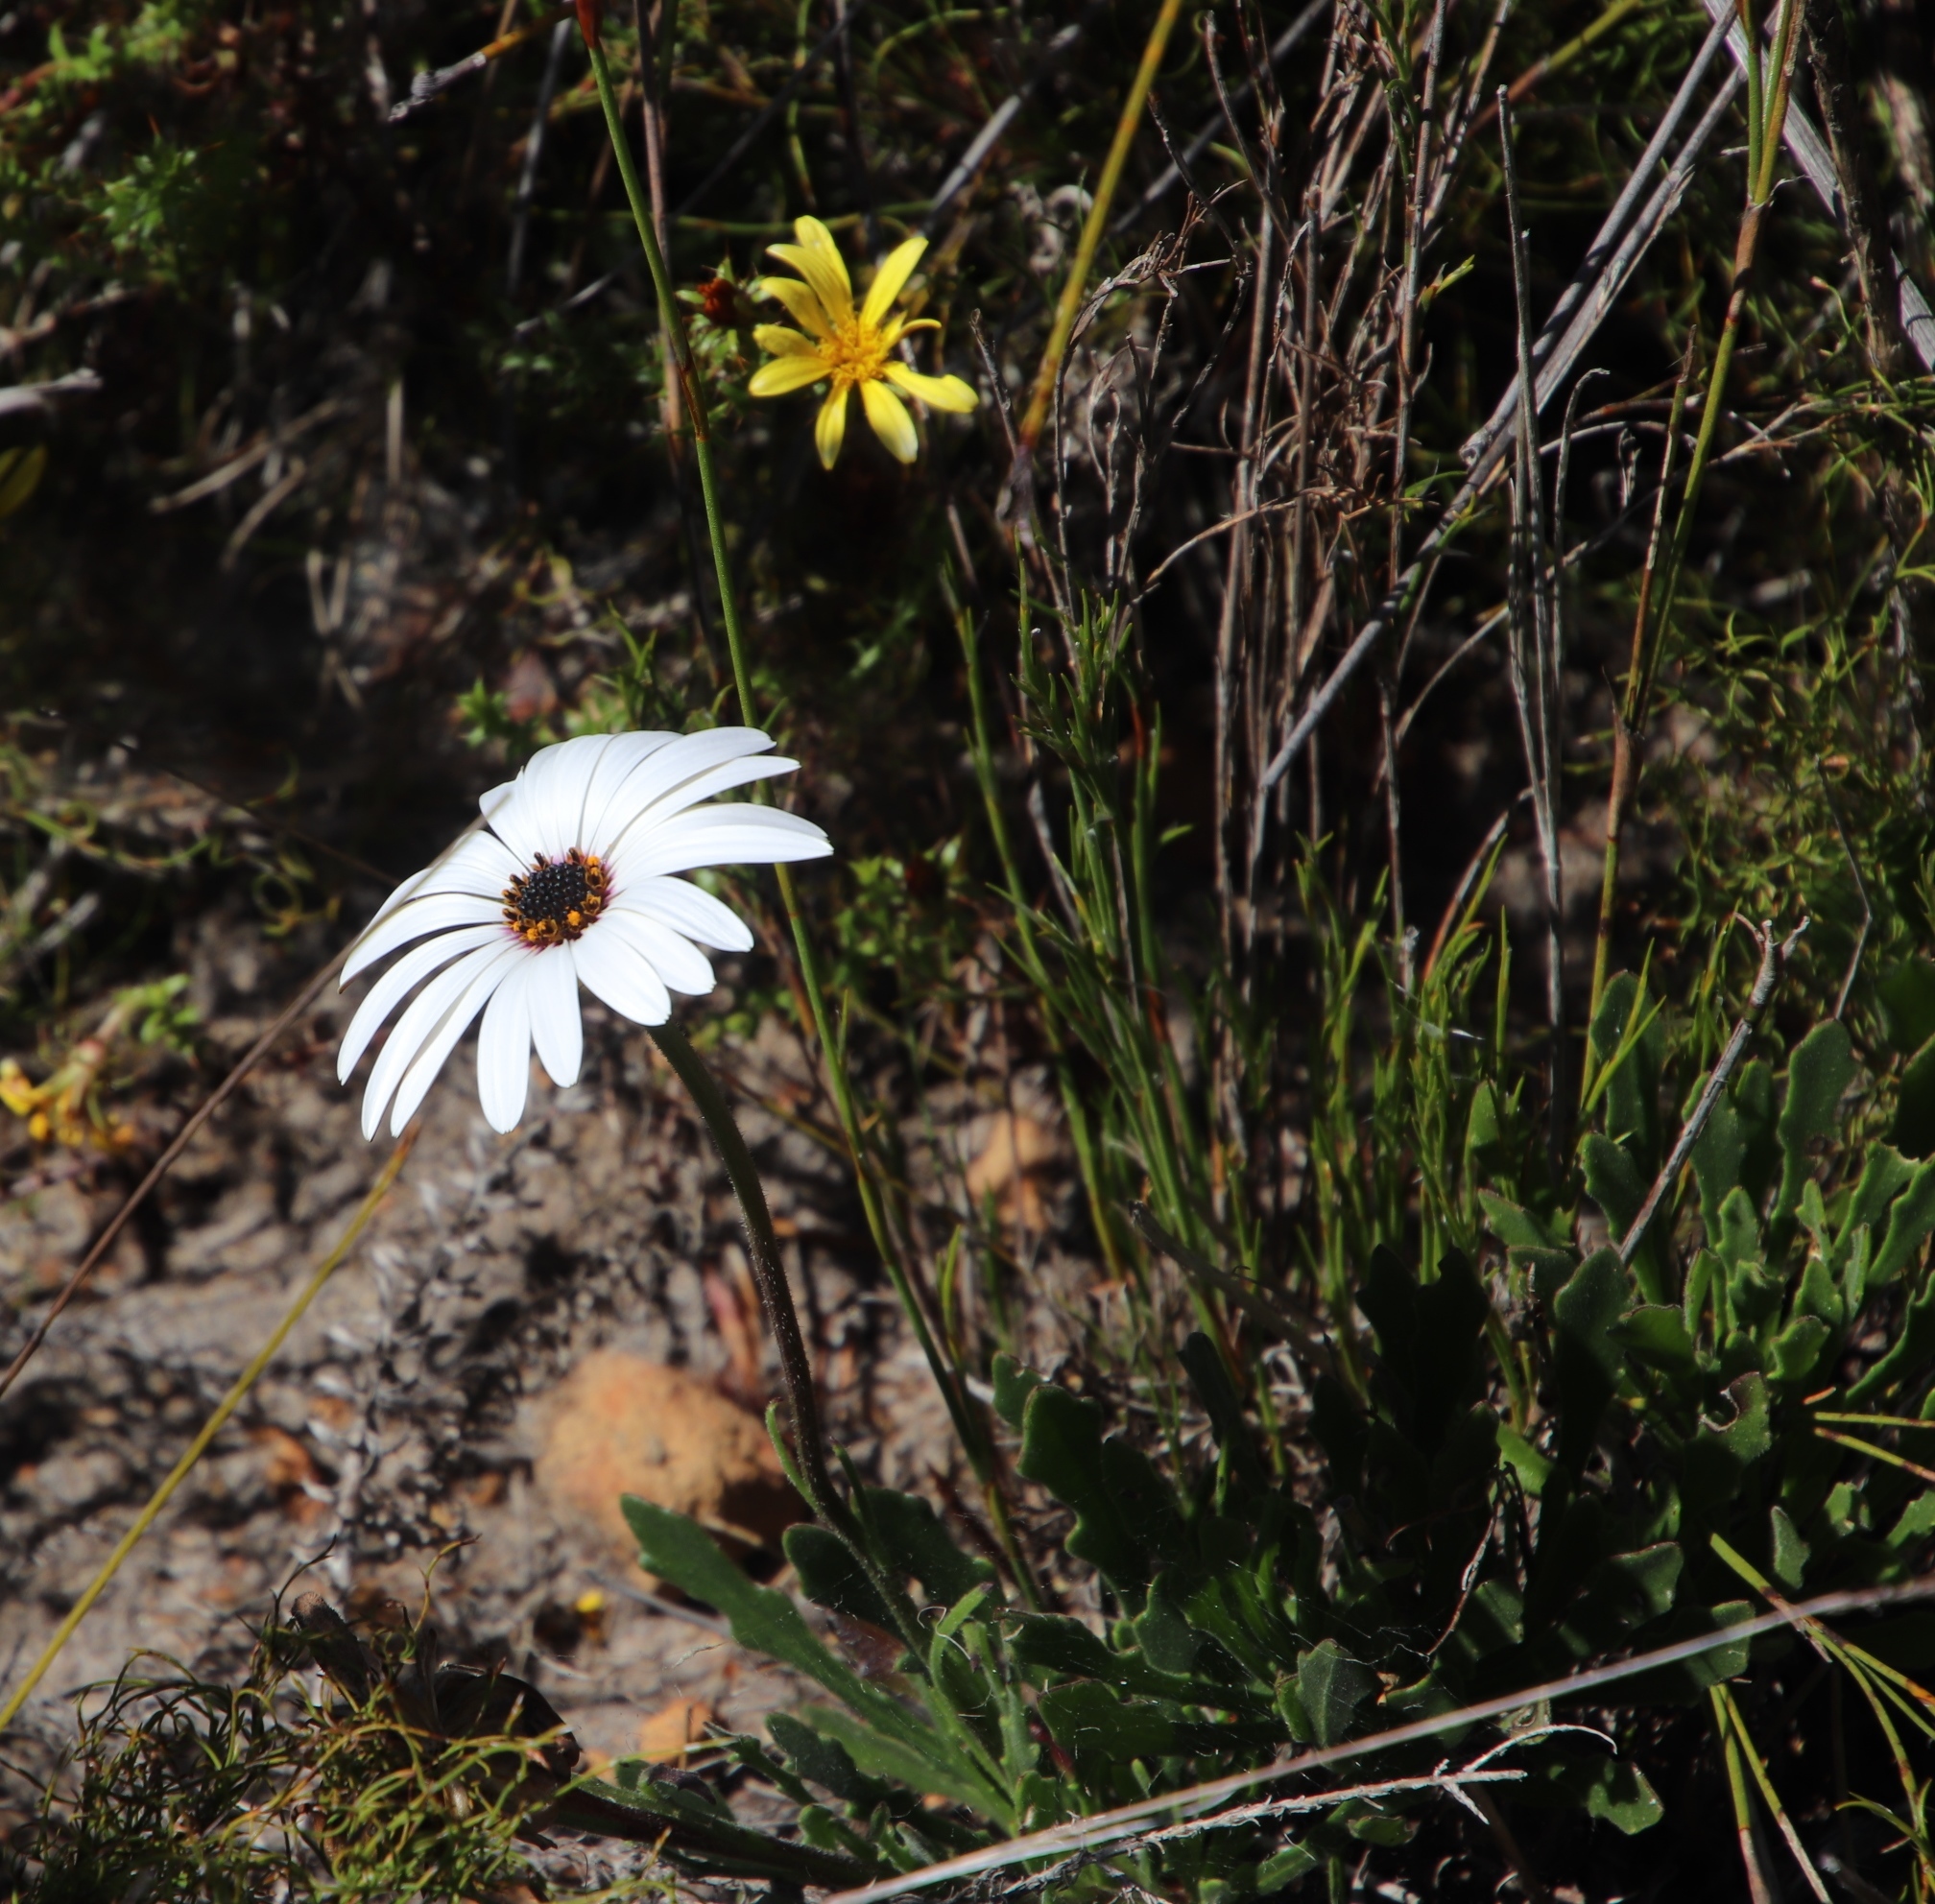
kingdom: Plantae
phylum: Tracheophyta
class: Magnoliopsida
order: Asterales
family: Asteraceae
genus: Dimorphotheca
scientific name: Dimorphotheca nudicaulis
